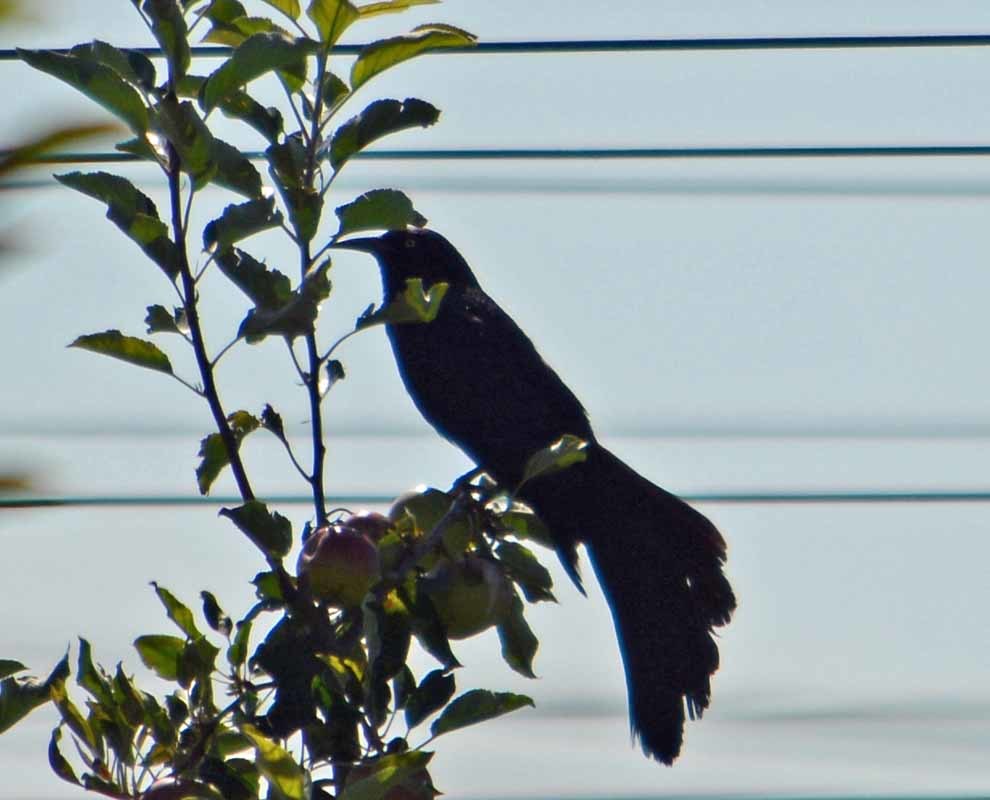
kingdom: Animalia
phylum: Chordata
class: Aves
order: Passeriformes
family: Icteridae
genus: Quiscalus
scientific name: Quiscalus mexicanus
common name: Great-tailed grackle
